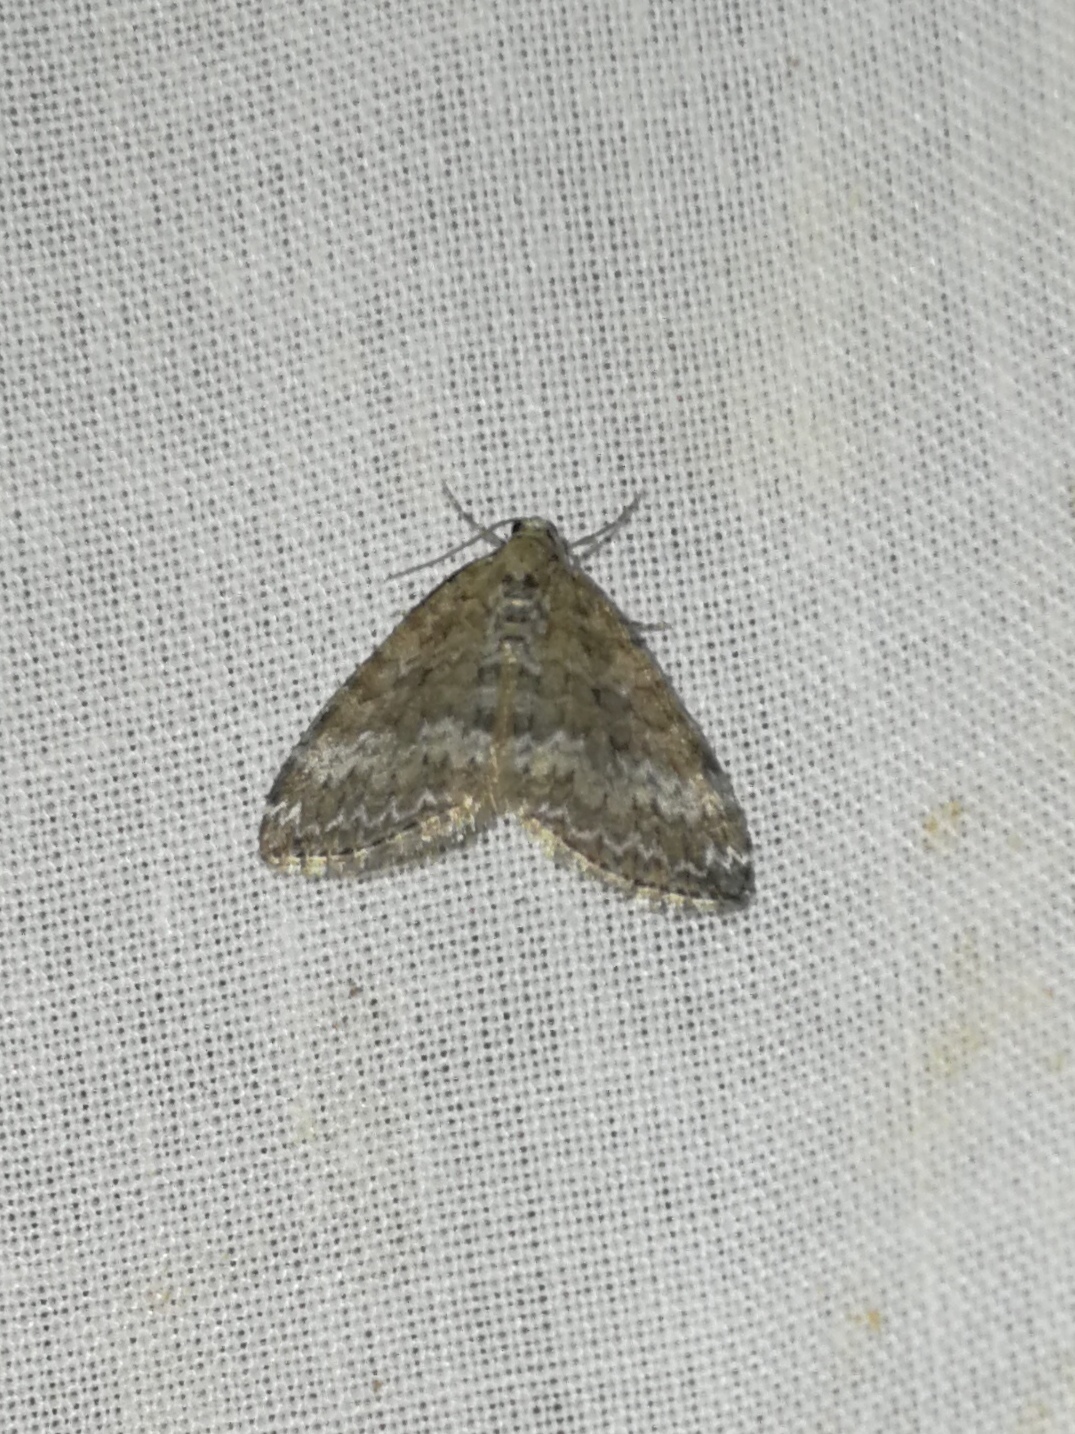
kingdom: Animalia
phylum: Arthropoda
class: Insecta
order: Lepidoptera
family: Geometridae
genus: Perizoma
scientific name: Perizoma hydrata
